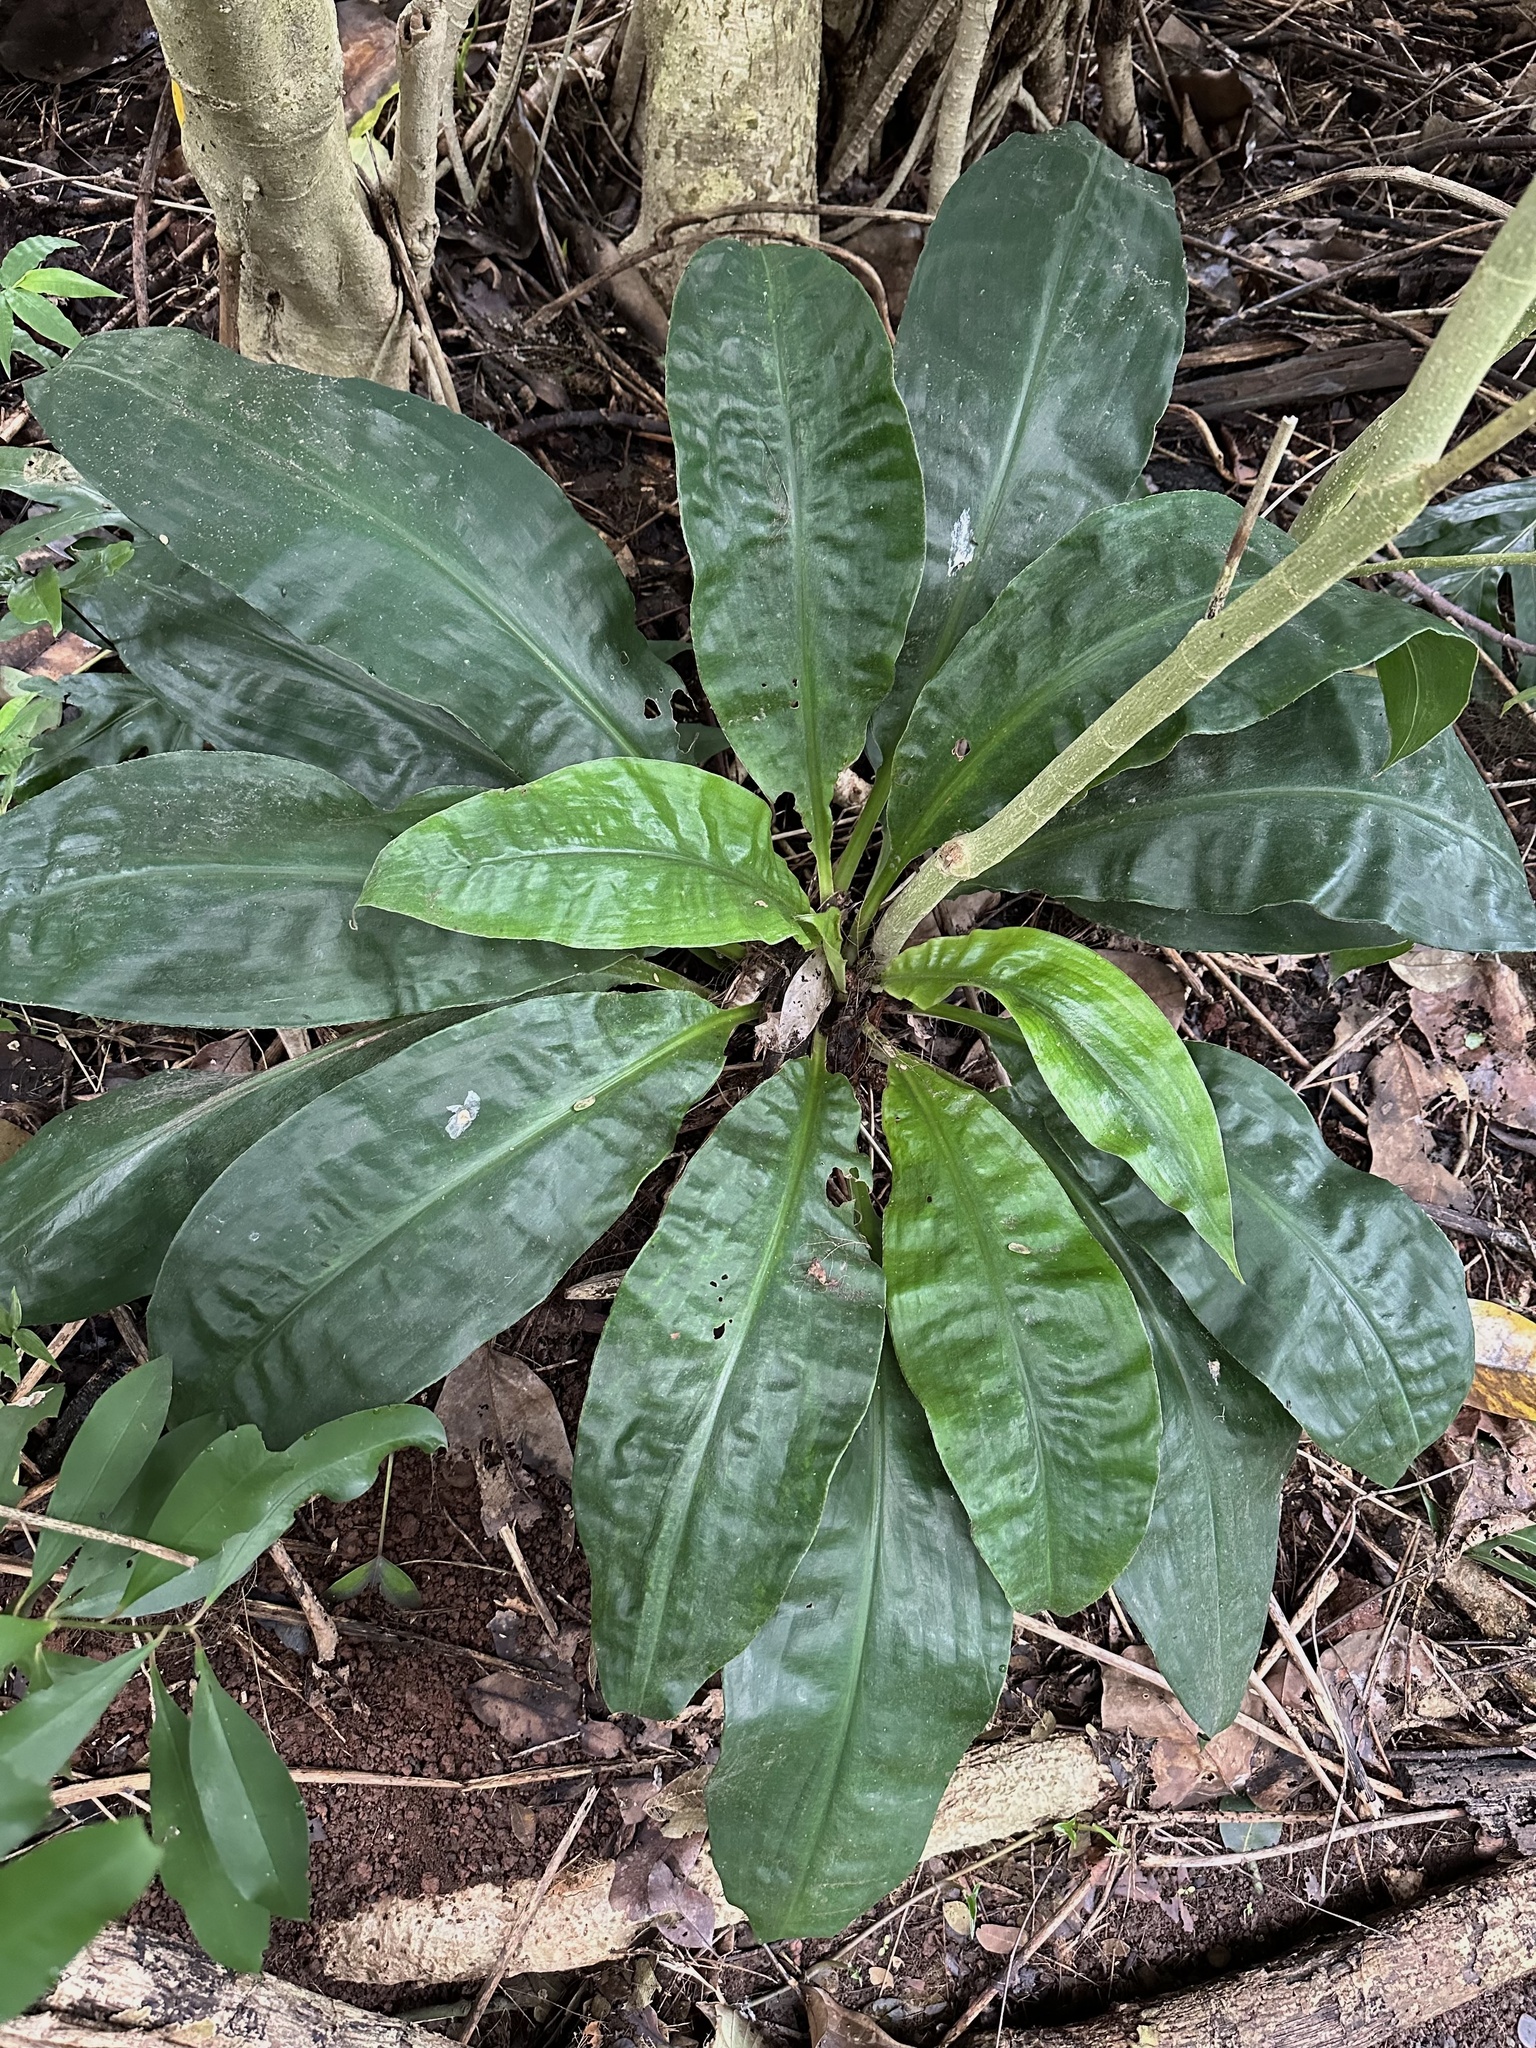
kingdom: Plantae
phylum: Tracheophyta
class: Liliopsida
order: Commelinales
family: Commelinaceae
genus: Palisota
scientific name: Palisota bracteosa
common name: Palisota
